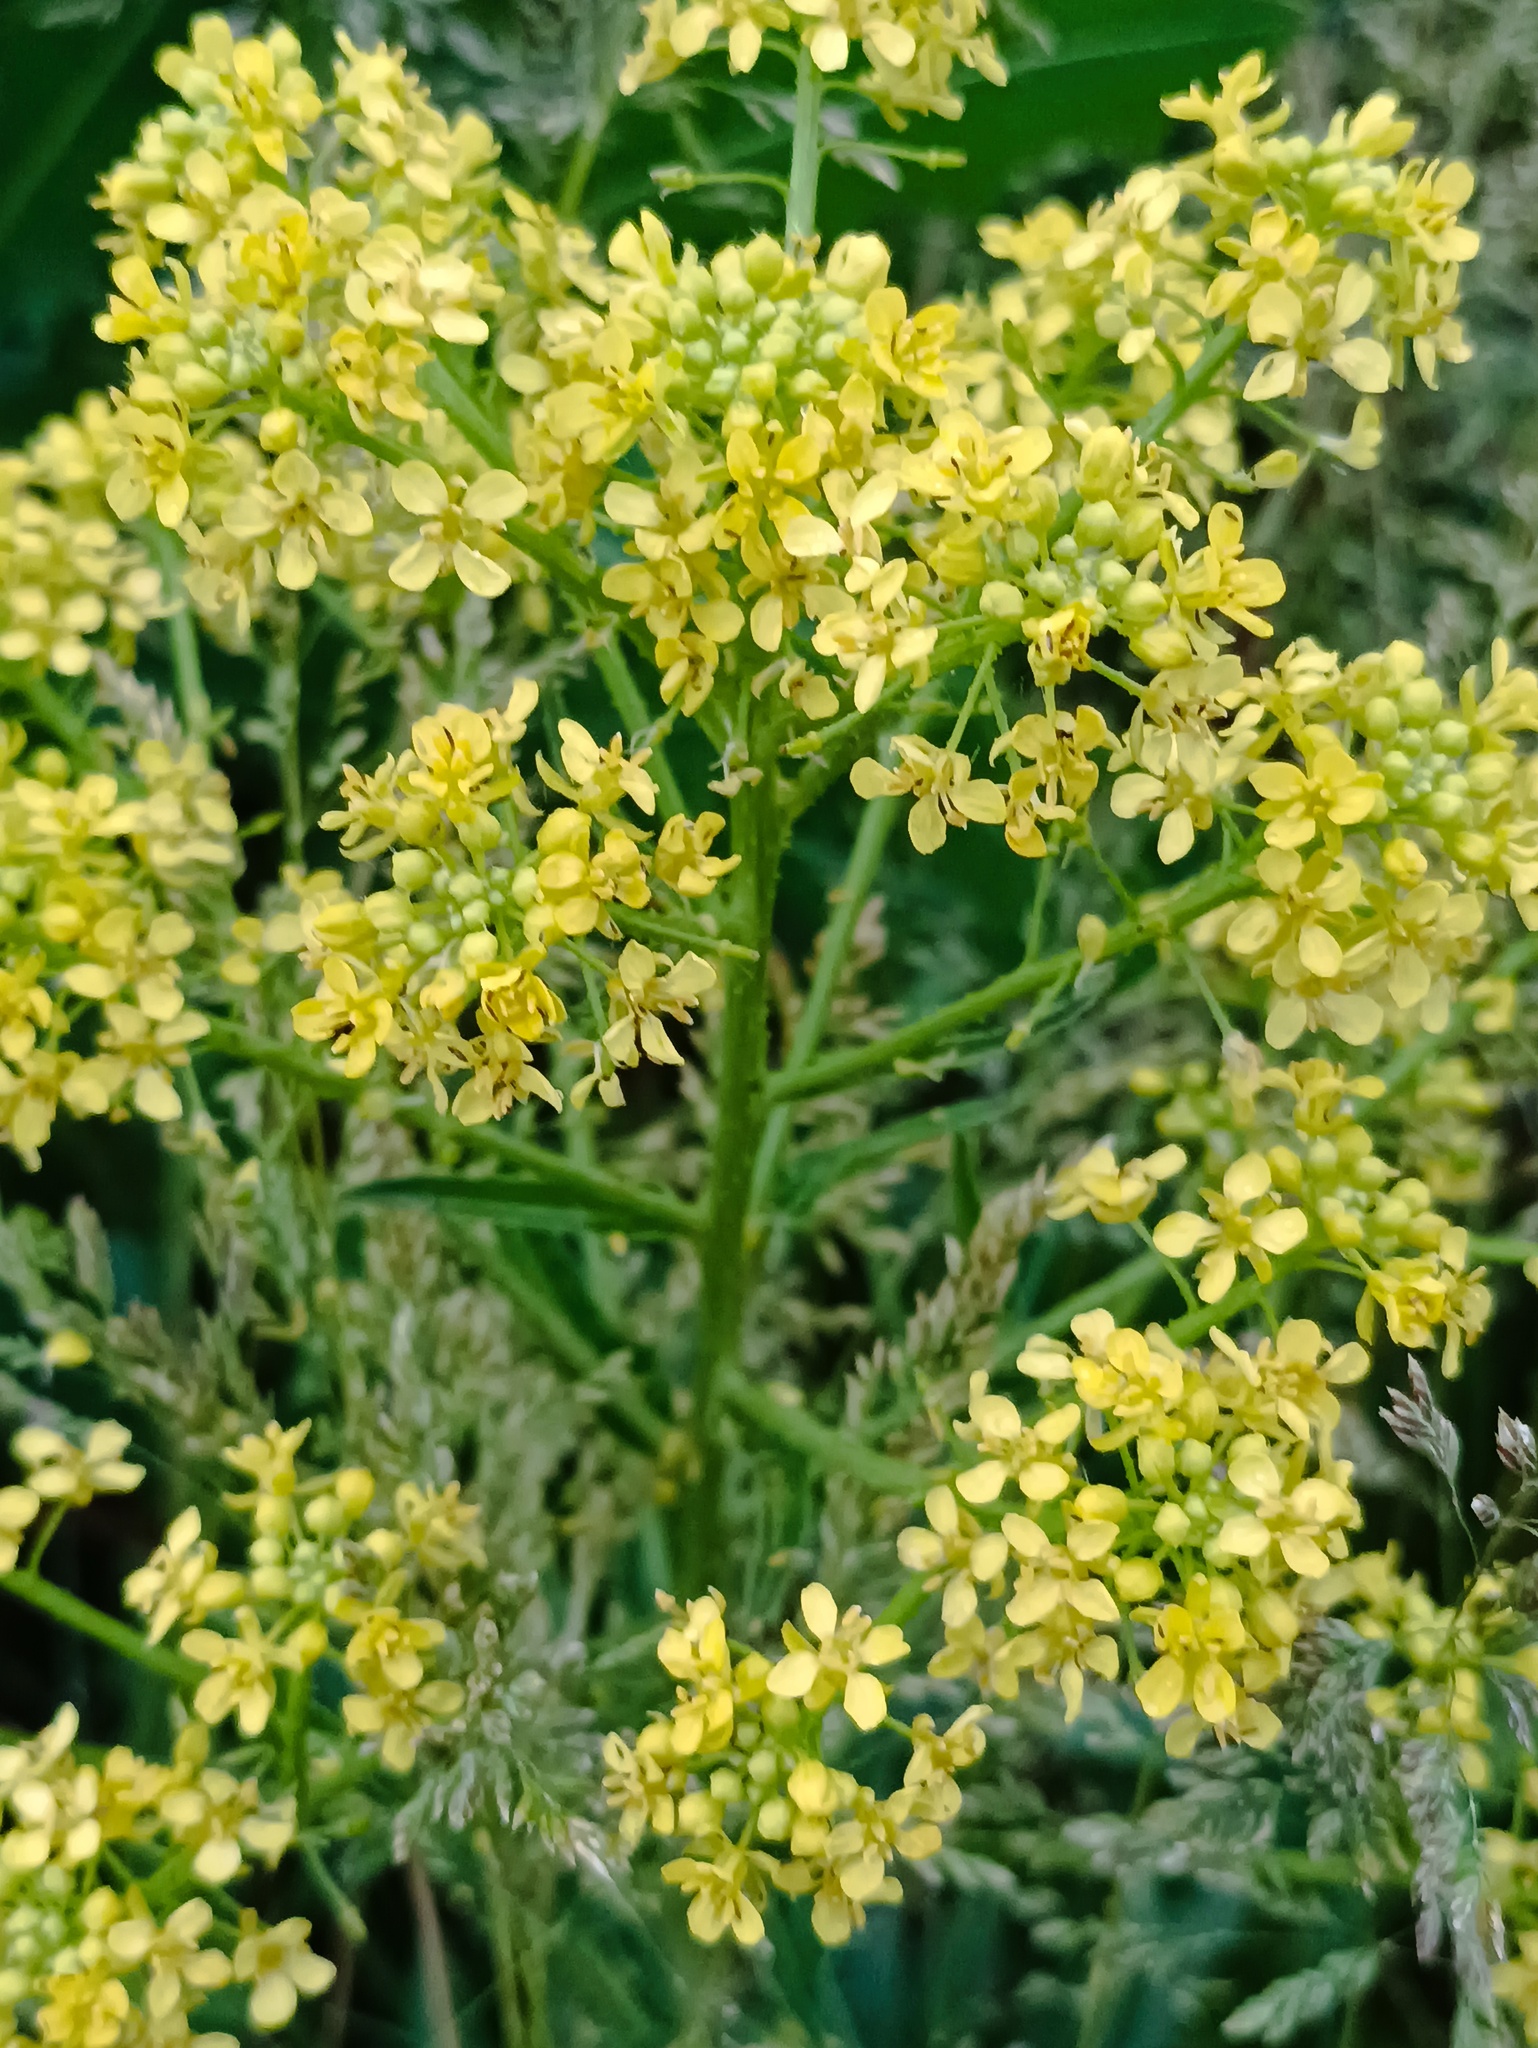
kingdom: Plantae
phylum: Tracheophyta
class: Magnoliopsida
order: Brassicales
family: Brassicaceae
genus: Bunias
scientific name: Bunias orientalis
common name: Warty-cabbage
